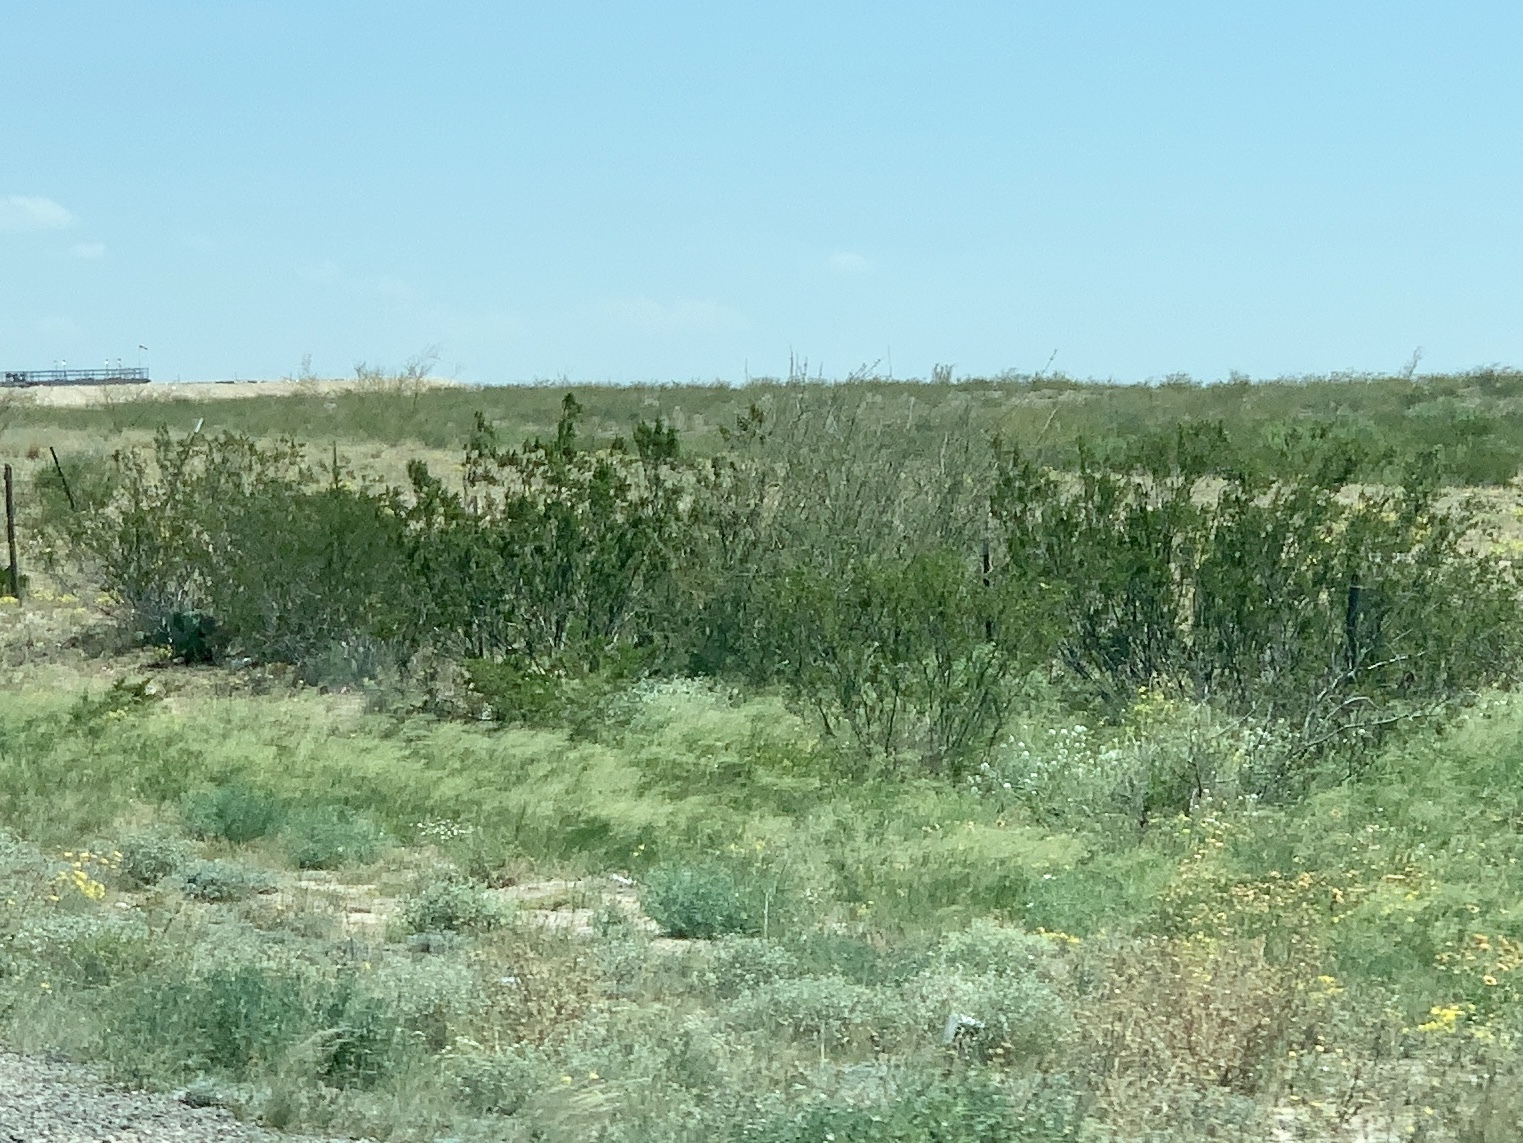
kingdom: Plantae
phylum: Tracheophyta
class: Magnoliopsida
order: Zygophyllales
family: Zygophyllaceae
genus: Larrea
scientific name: Larrea tridentata
